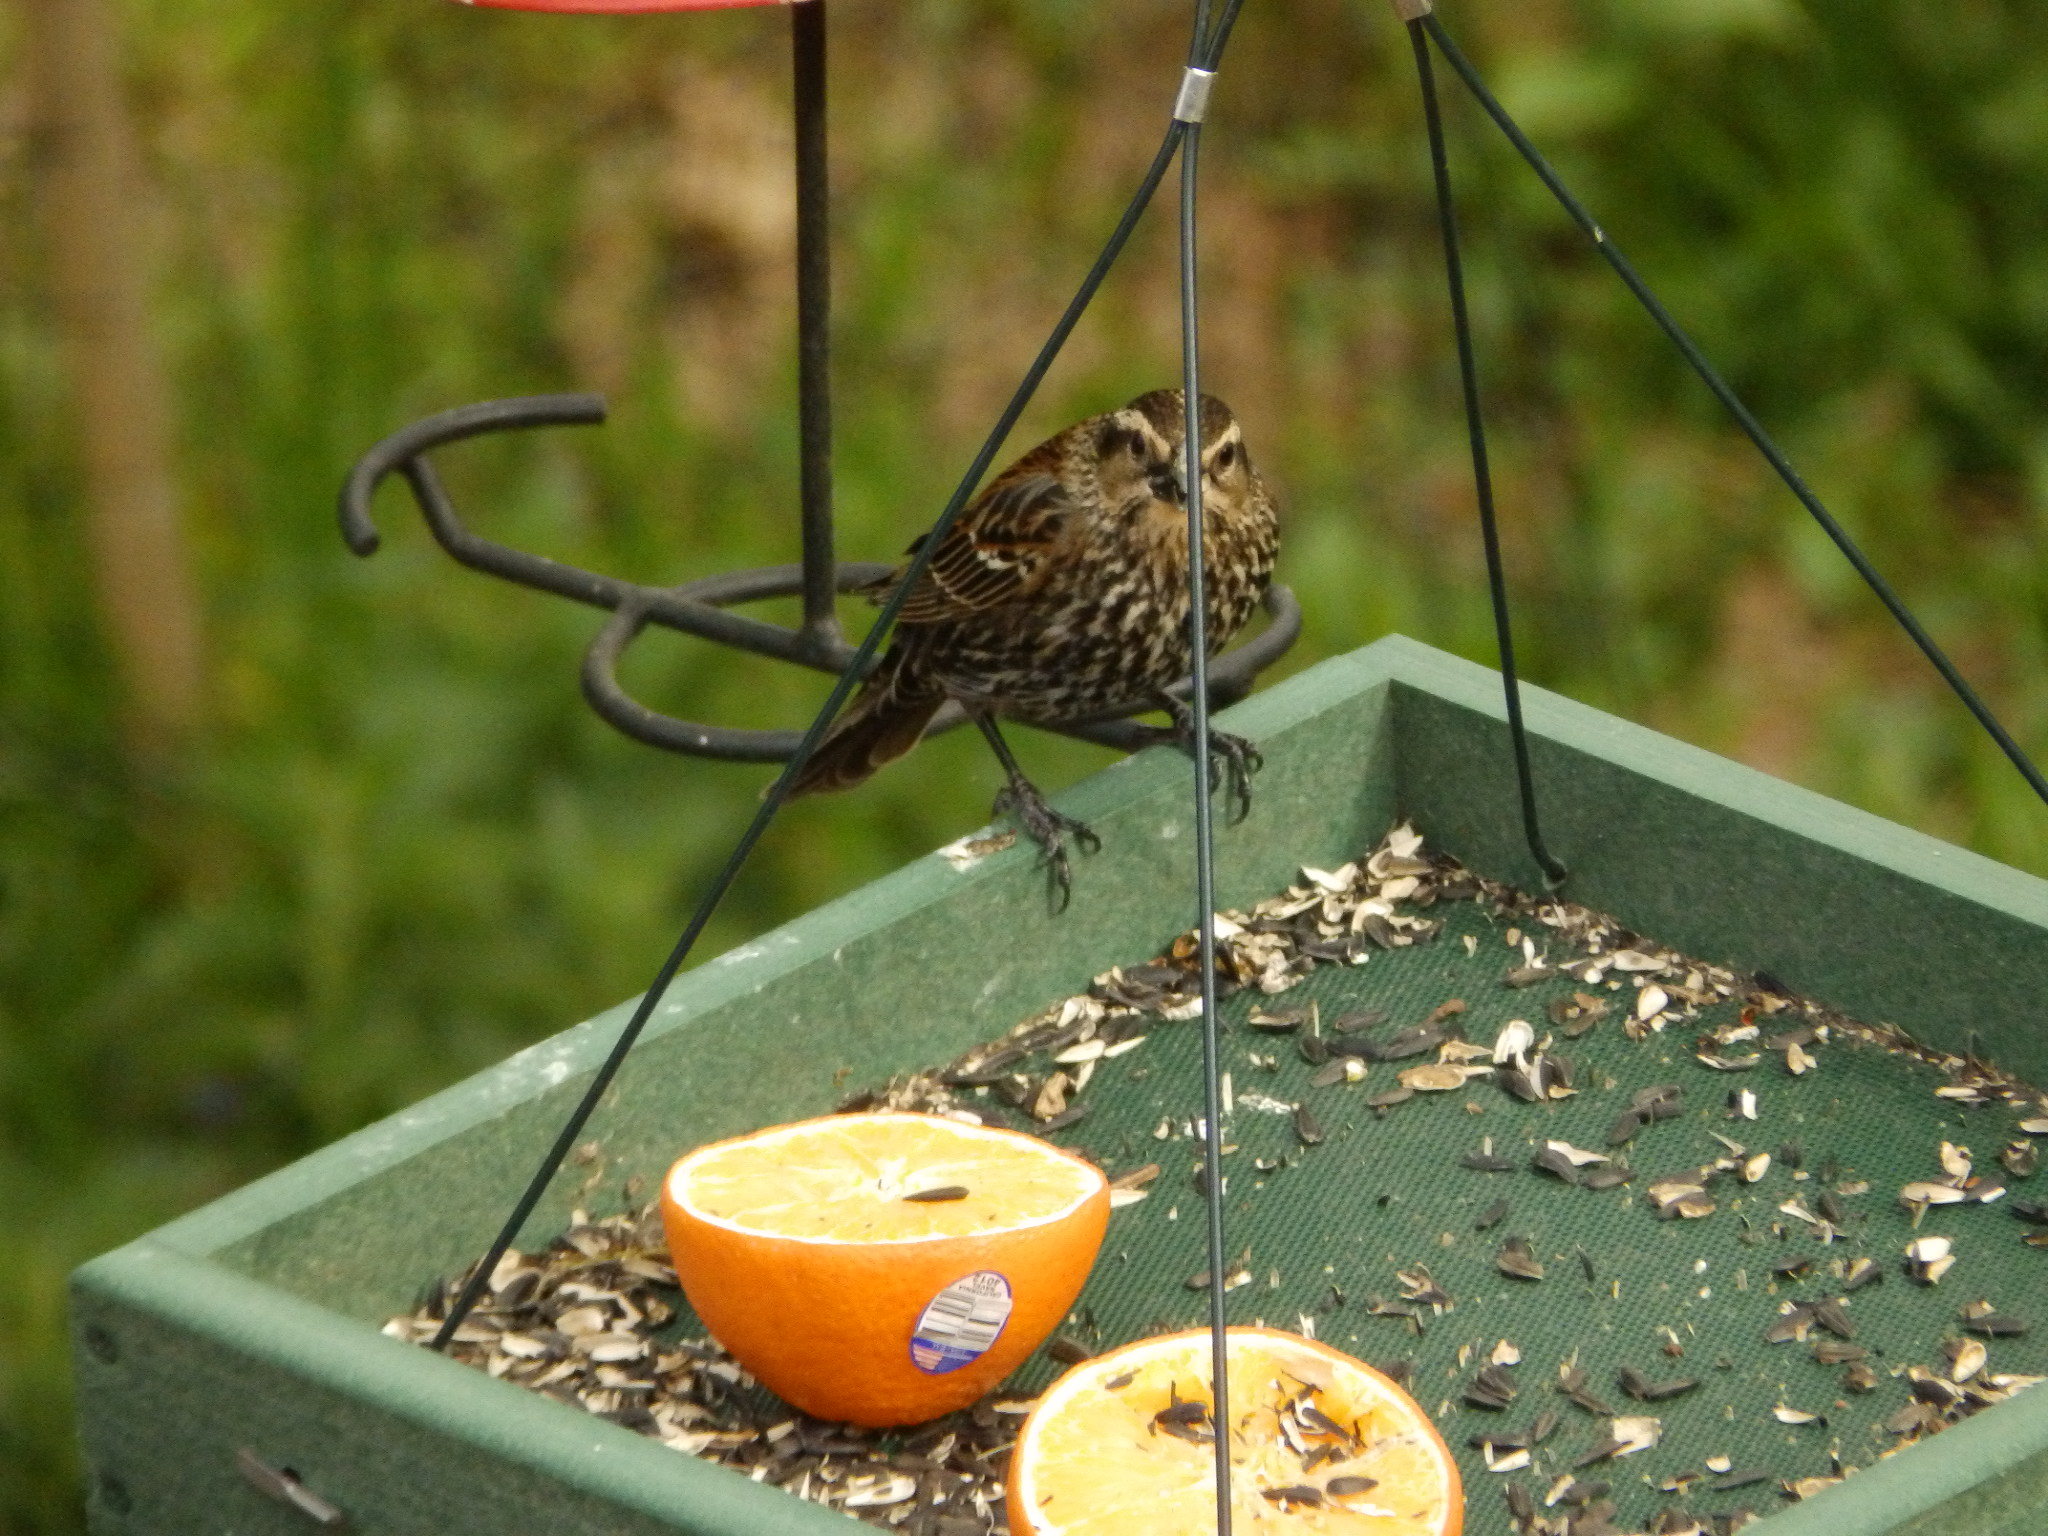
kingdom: Animalia
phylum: Chordata
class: Aves
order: Passeriformes
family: Icteridae
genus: Agelaius
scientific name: Agelaius phoeniceus
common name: Red-winged blackbird
